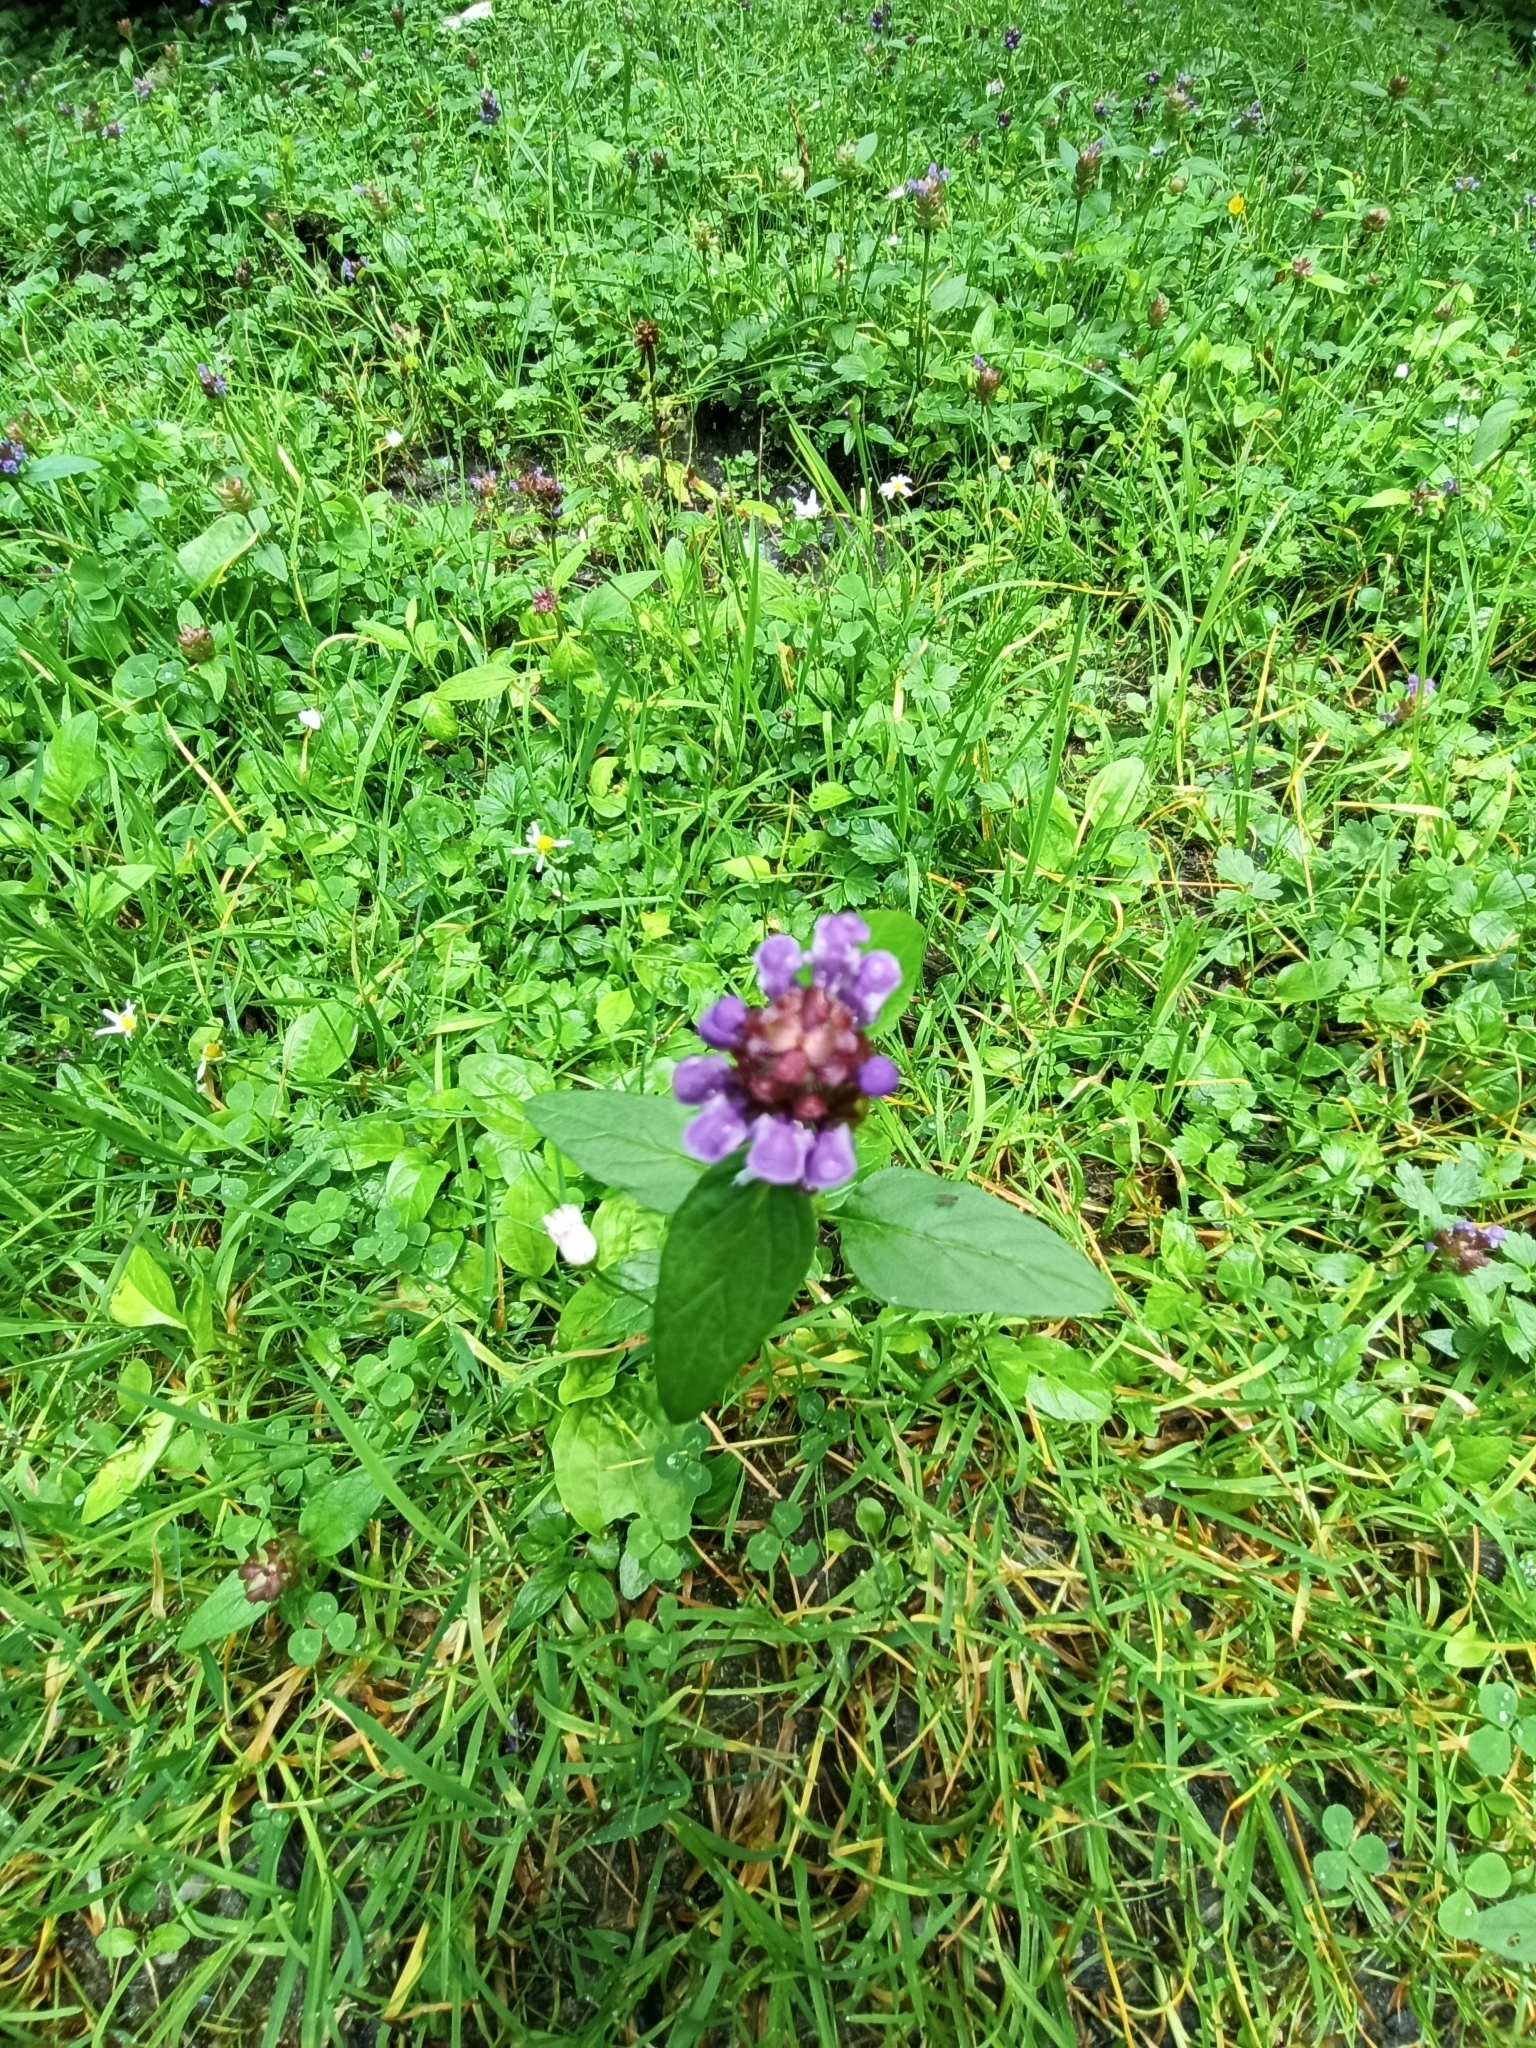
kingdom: Plantae
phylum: Tracheophyta
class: Magnoliopsida
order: Lamiales
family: Lamiaceae
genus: Prunella
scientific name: Prunella vulgaris
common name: Heal-all
